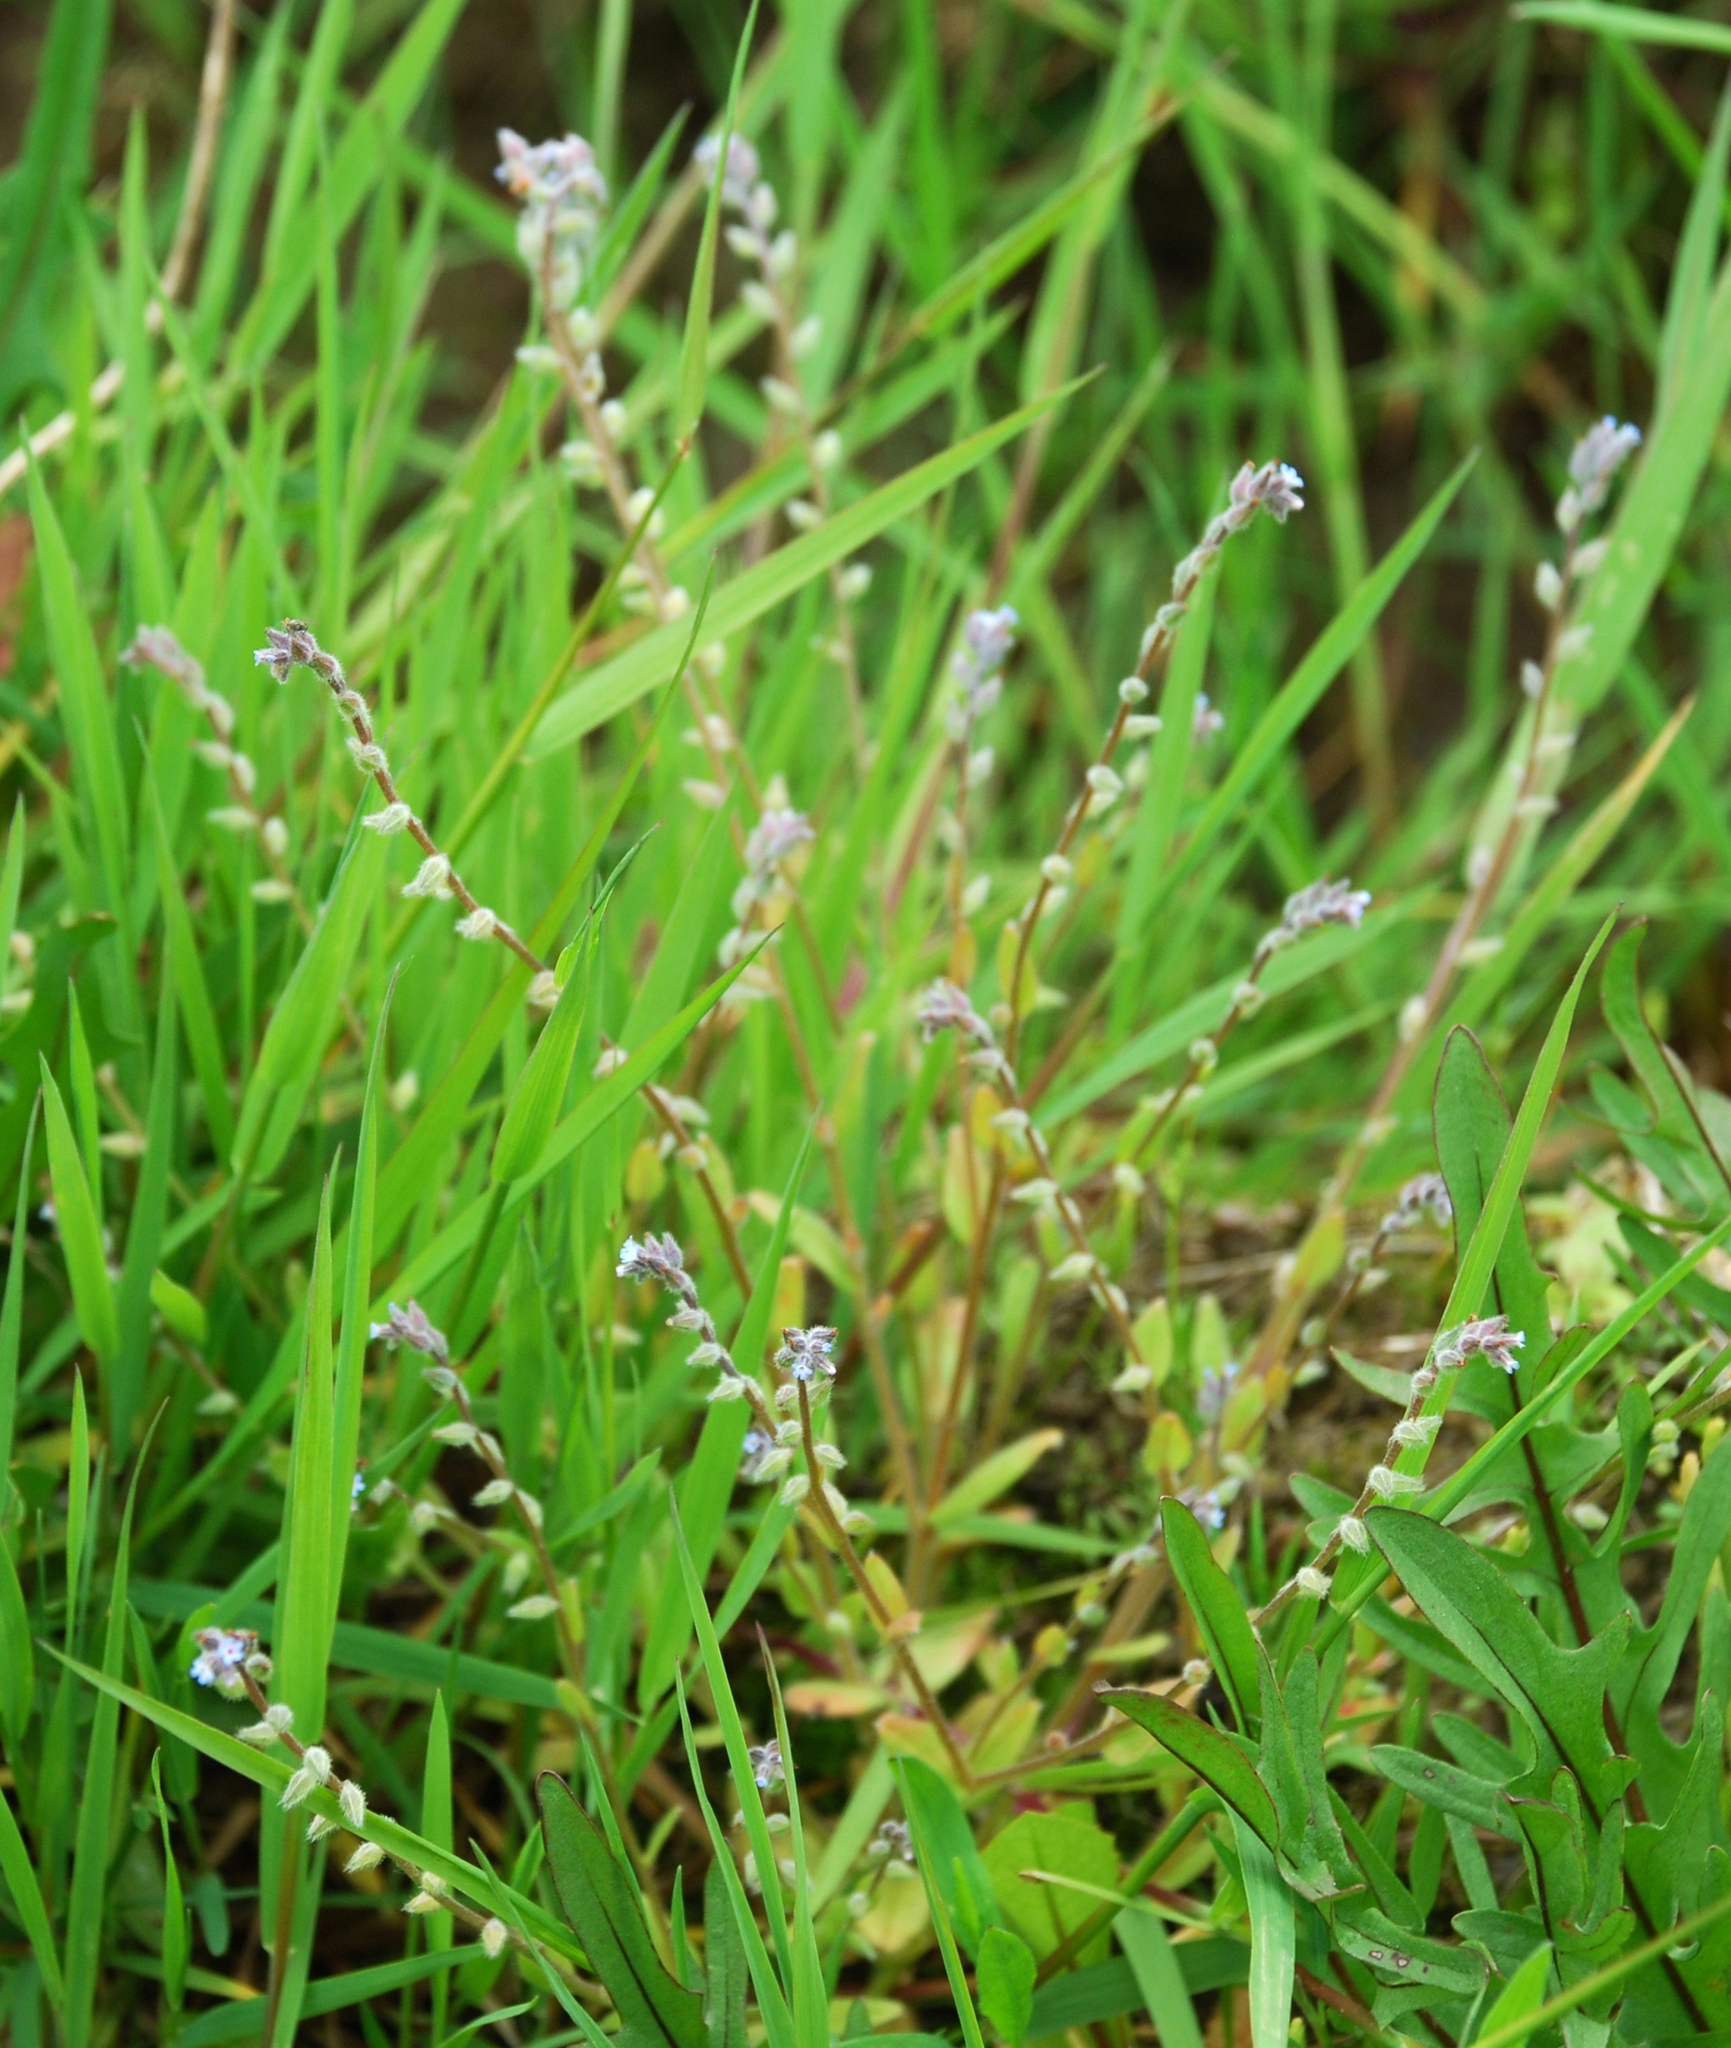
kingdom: Plantae
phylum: Tracheophyta
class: Magnoliopsida
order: Boraginales
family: Boraginaceae
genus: Myosotis
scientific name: Myosotis stricta
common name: Strict forget-me-not
